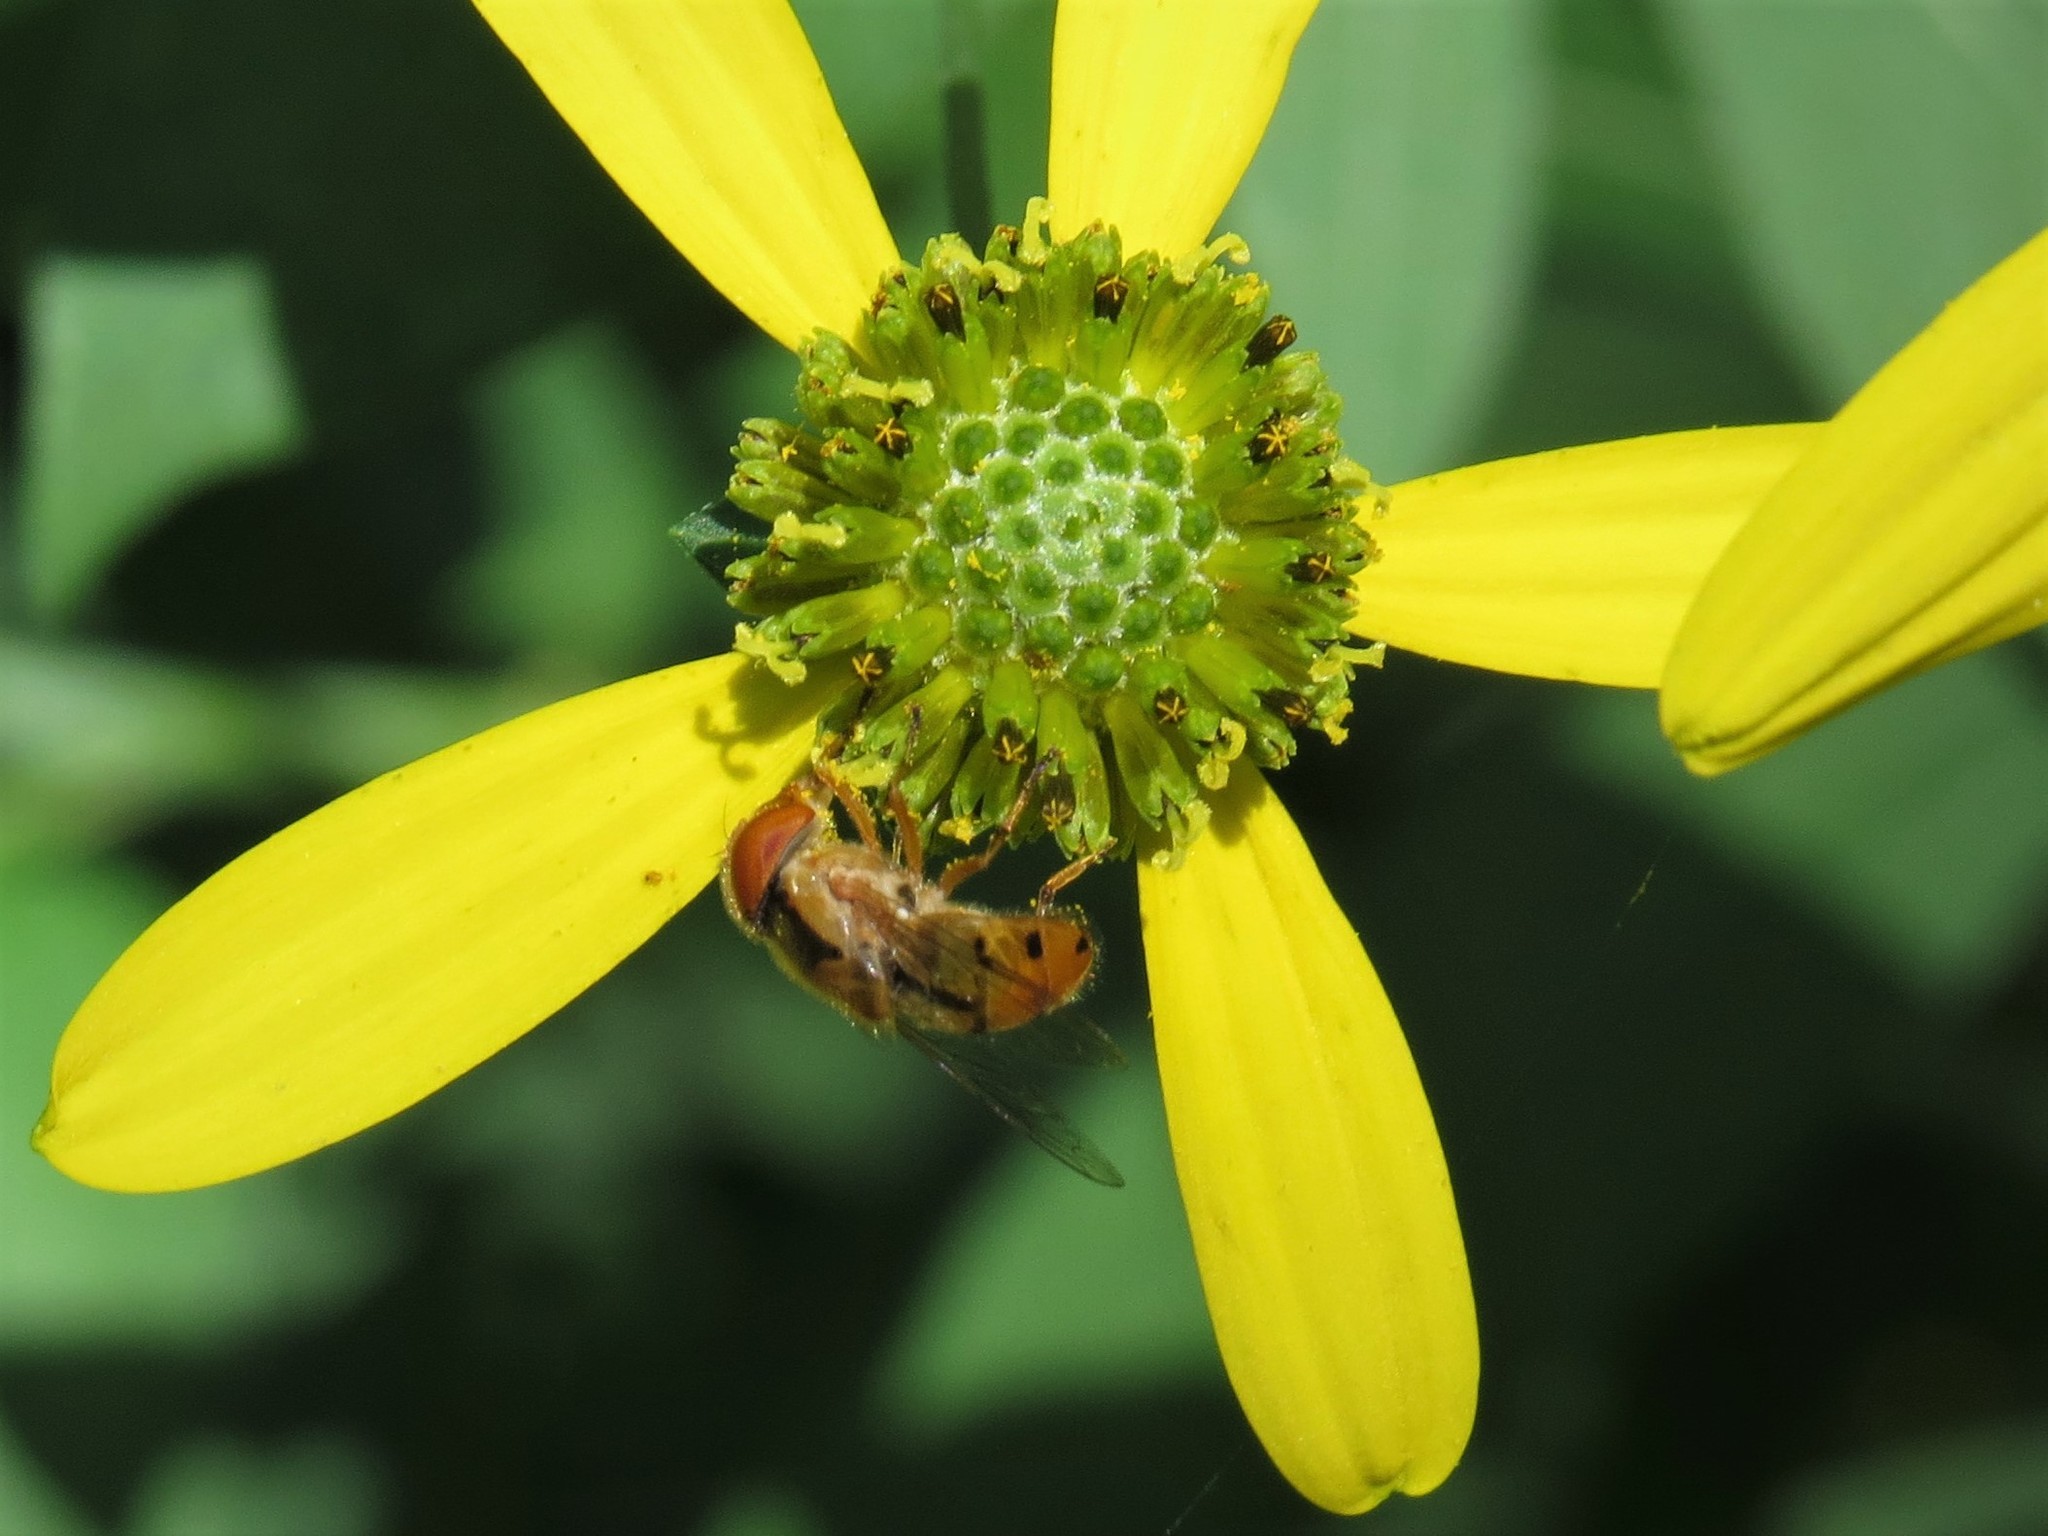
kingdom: Animalia
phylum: Arthropoda
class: Insecta
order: Diptera
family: Syrphidae
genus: Copestylum
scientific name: Copestylum sexmaculatum
